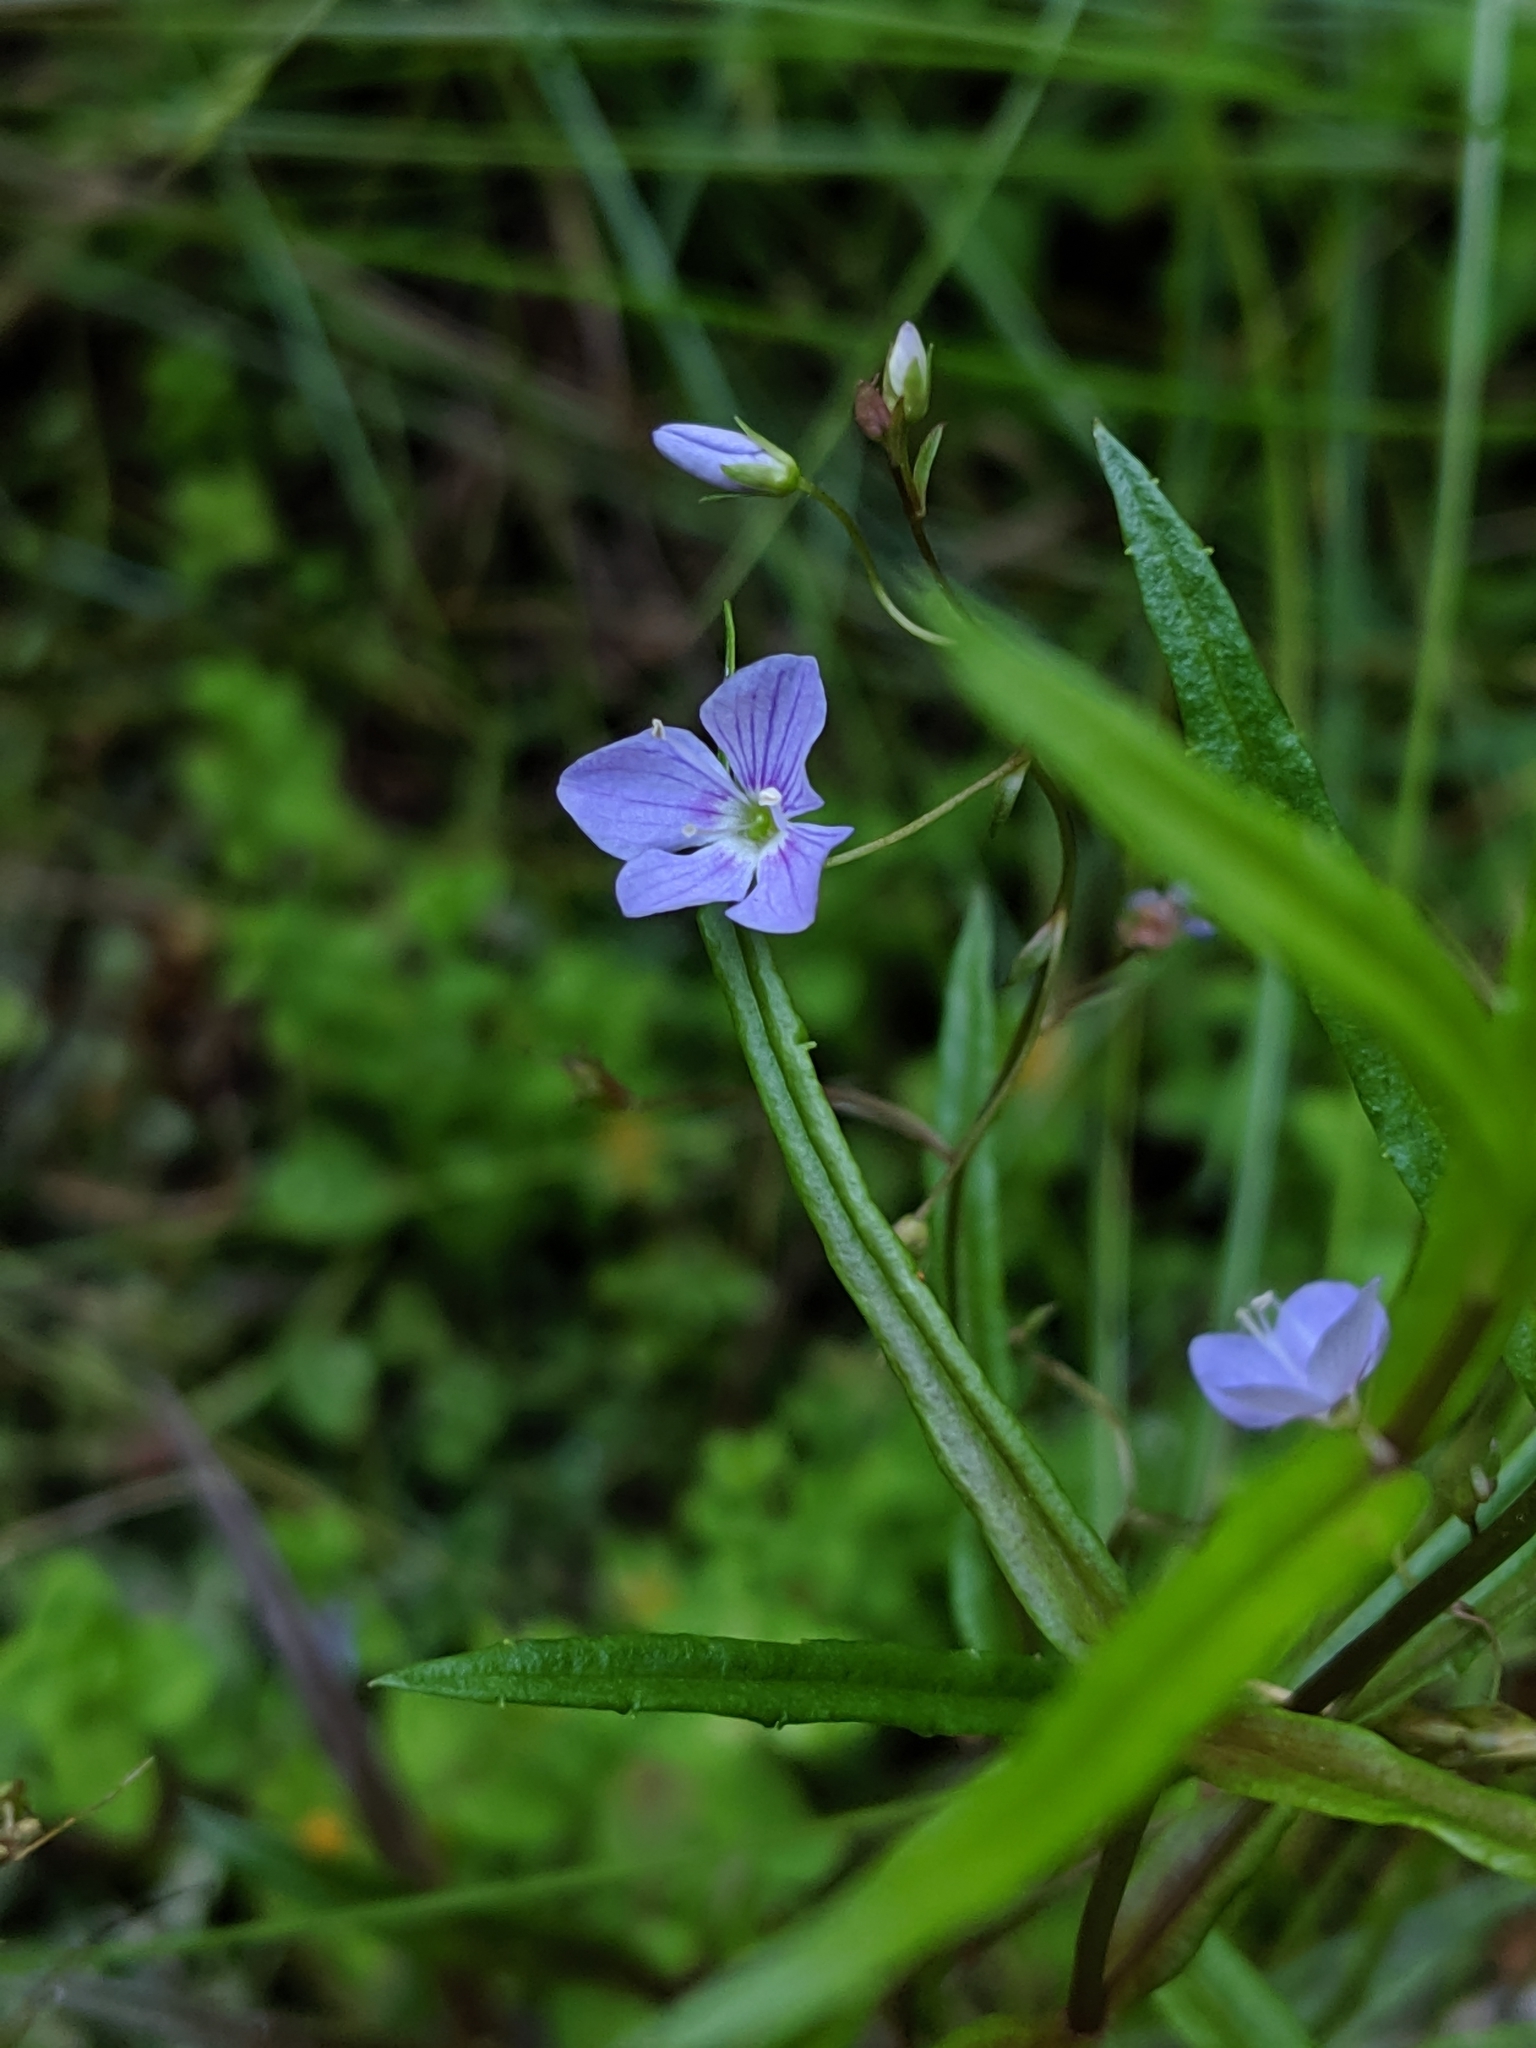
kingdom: Plantae
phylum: Tracheophyta
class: Magnoliopsida
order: Lamiales
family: Plantaginaceae
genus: Veronica
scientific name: Veronica scutellata
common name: Marsh speedwell
